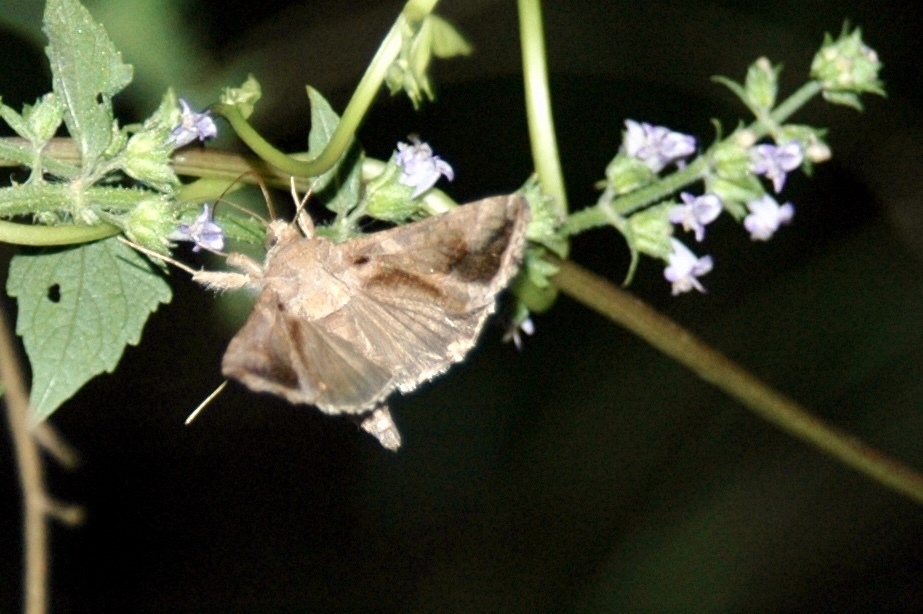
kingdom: Animalia
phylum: Arthropoda
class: Insecta
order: Lepidoptera
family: Noctuidae
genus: Chrysodeixis
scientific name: Chrysodeixis includens
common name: Cutworm moth
